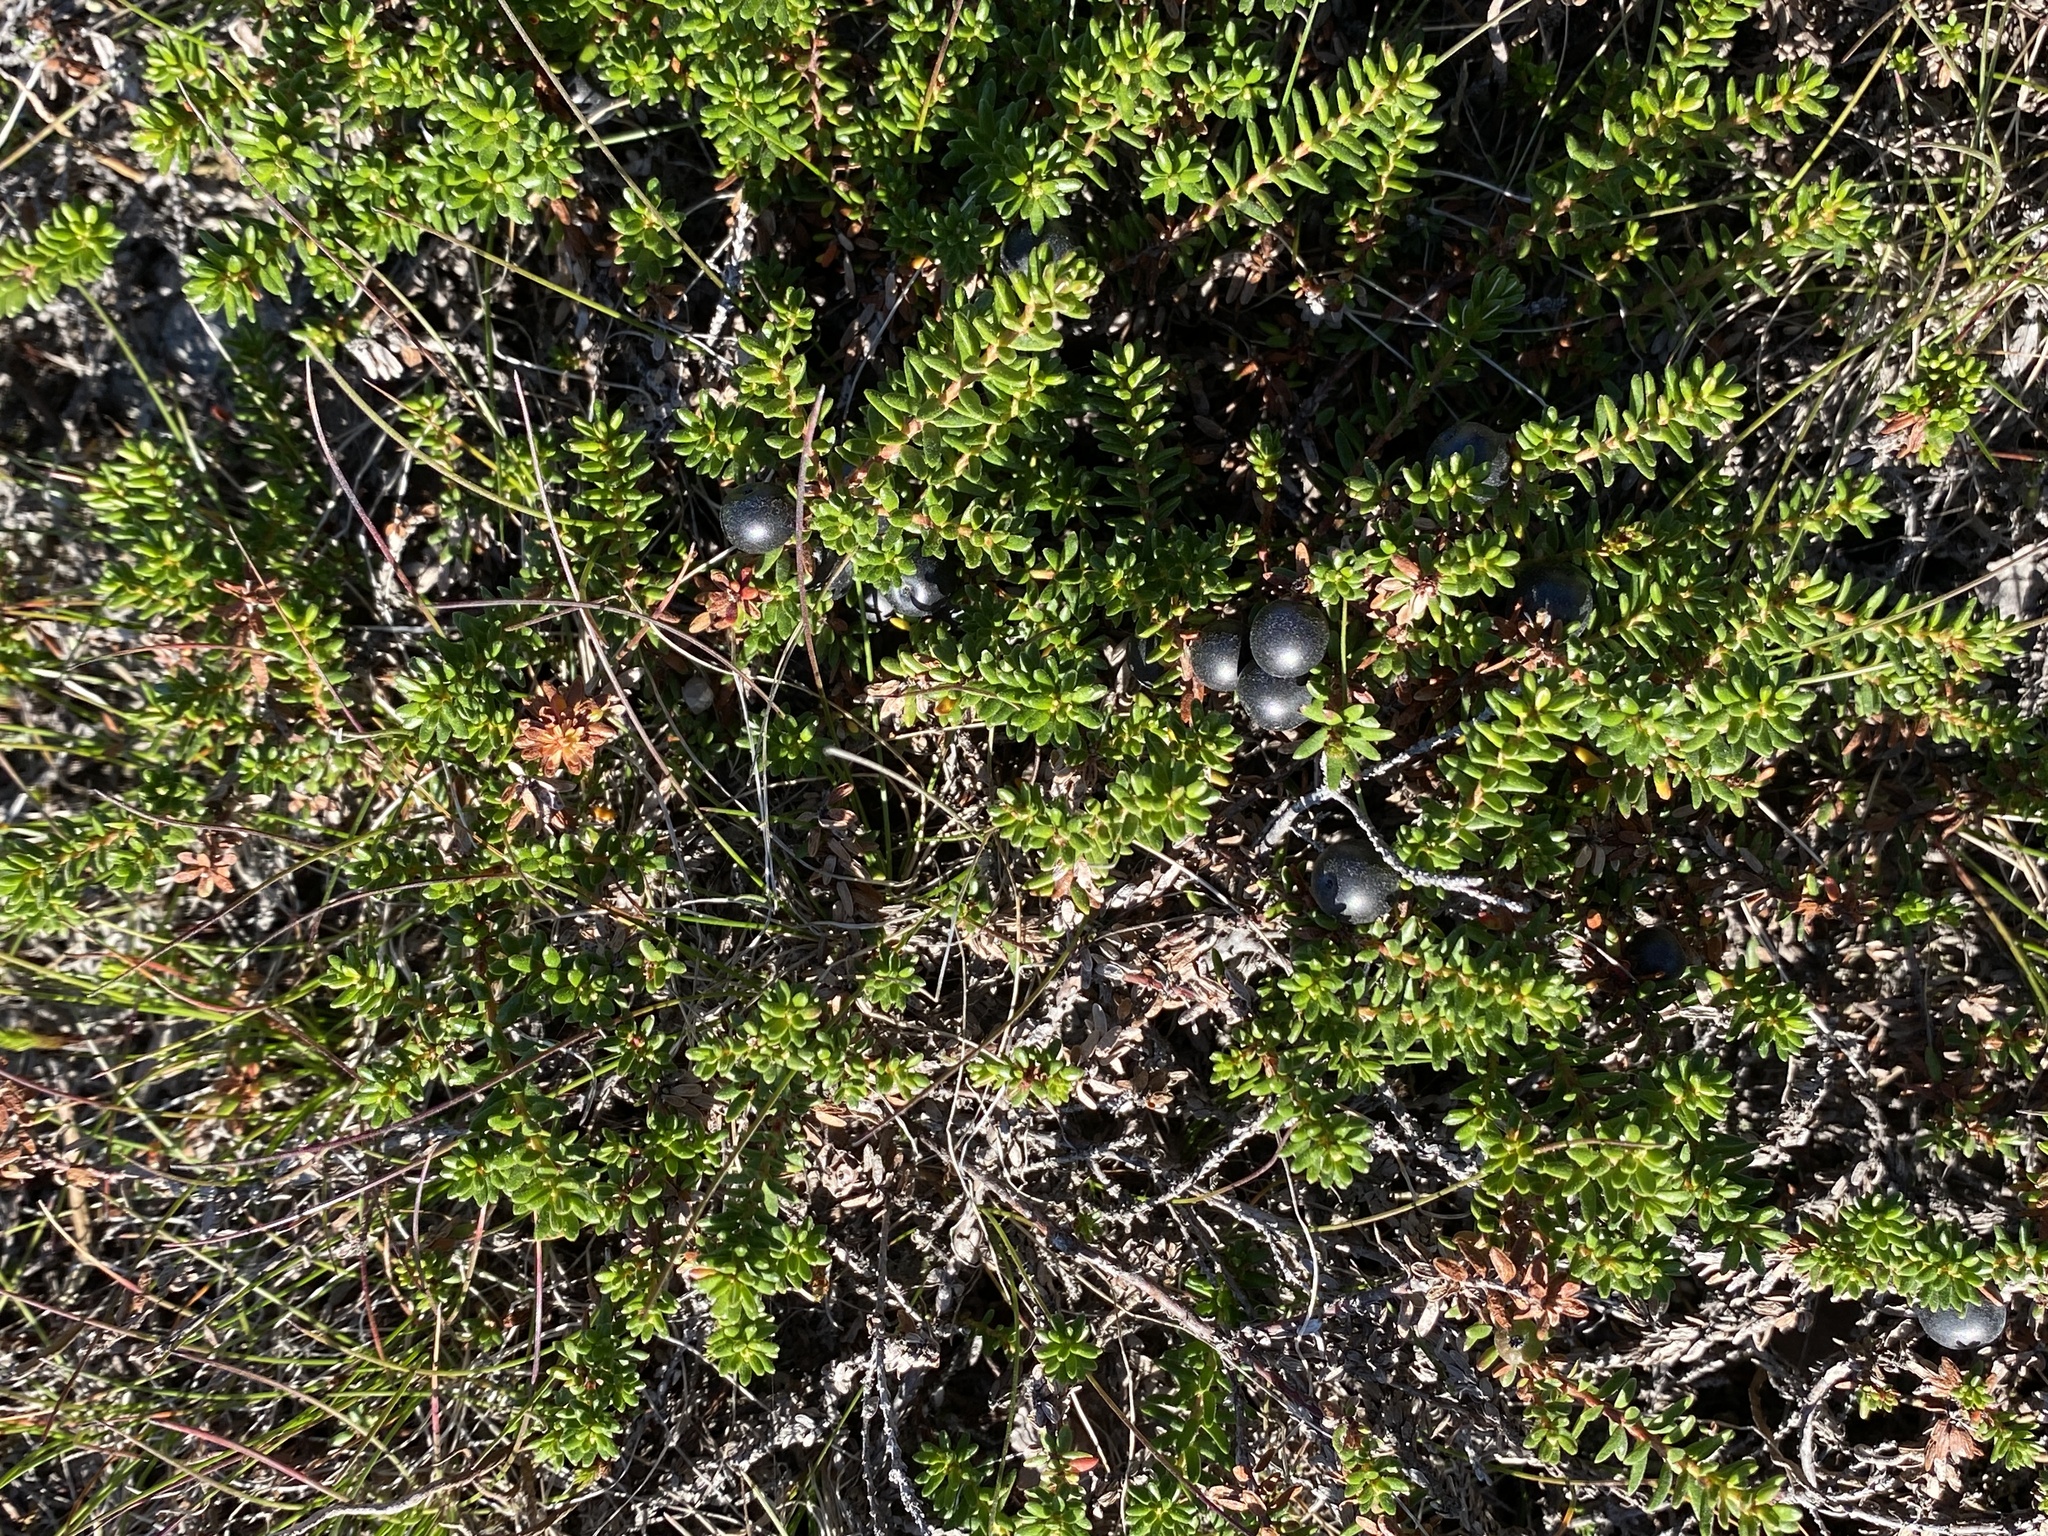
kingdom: Plantae
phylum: Tracheophyta
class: Magnoliopsida
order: Ericales
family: Ericaceae
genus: Empetrum
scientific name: Empetrum nigrum
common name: Black crowberry
